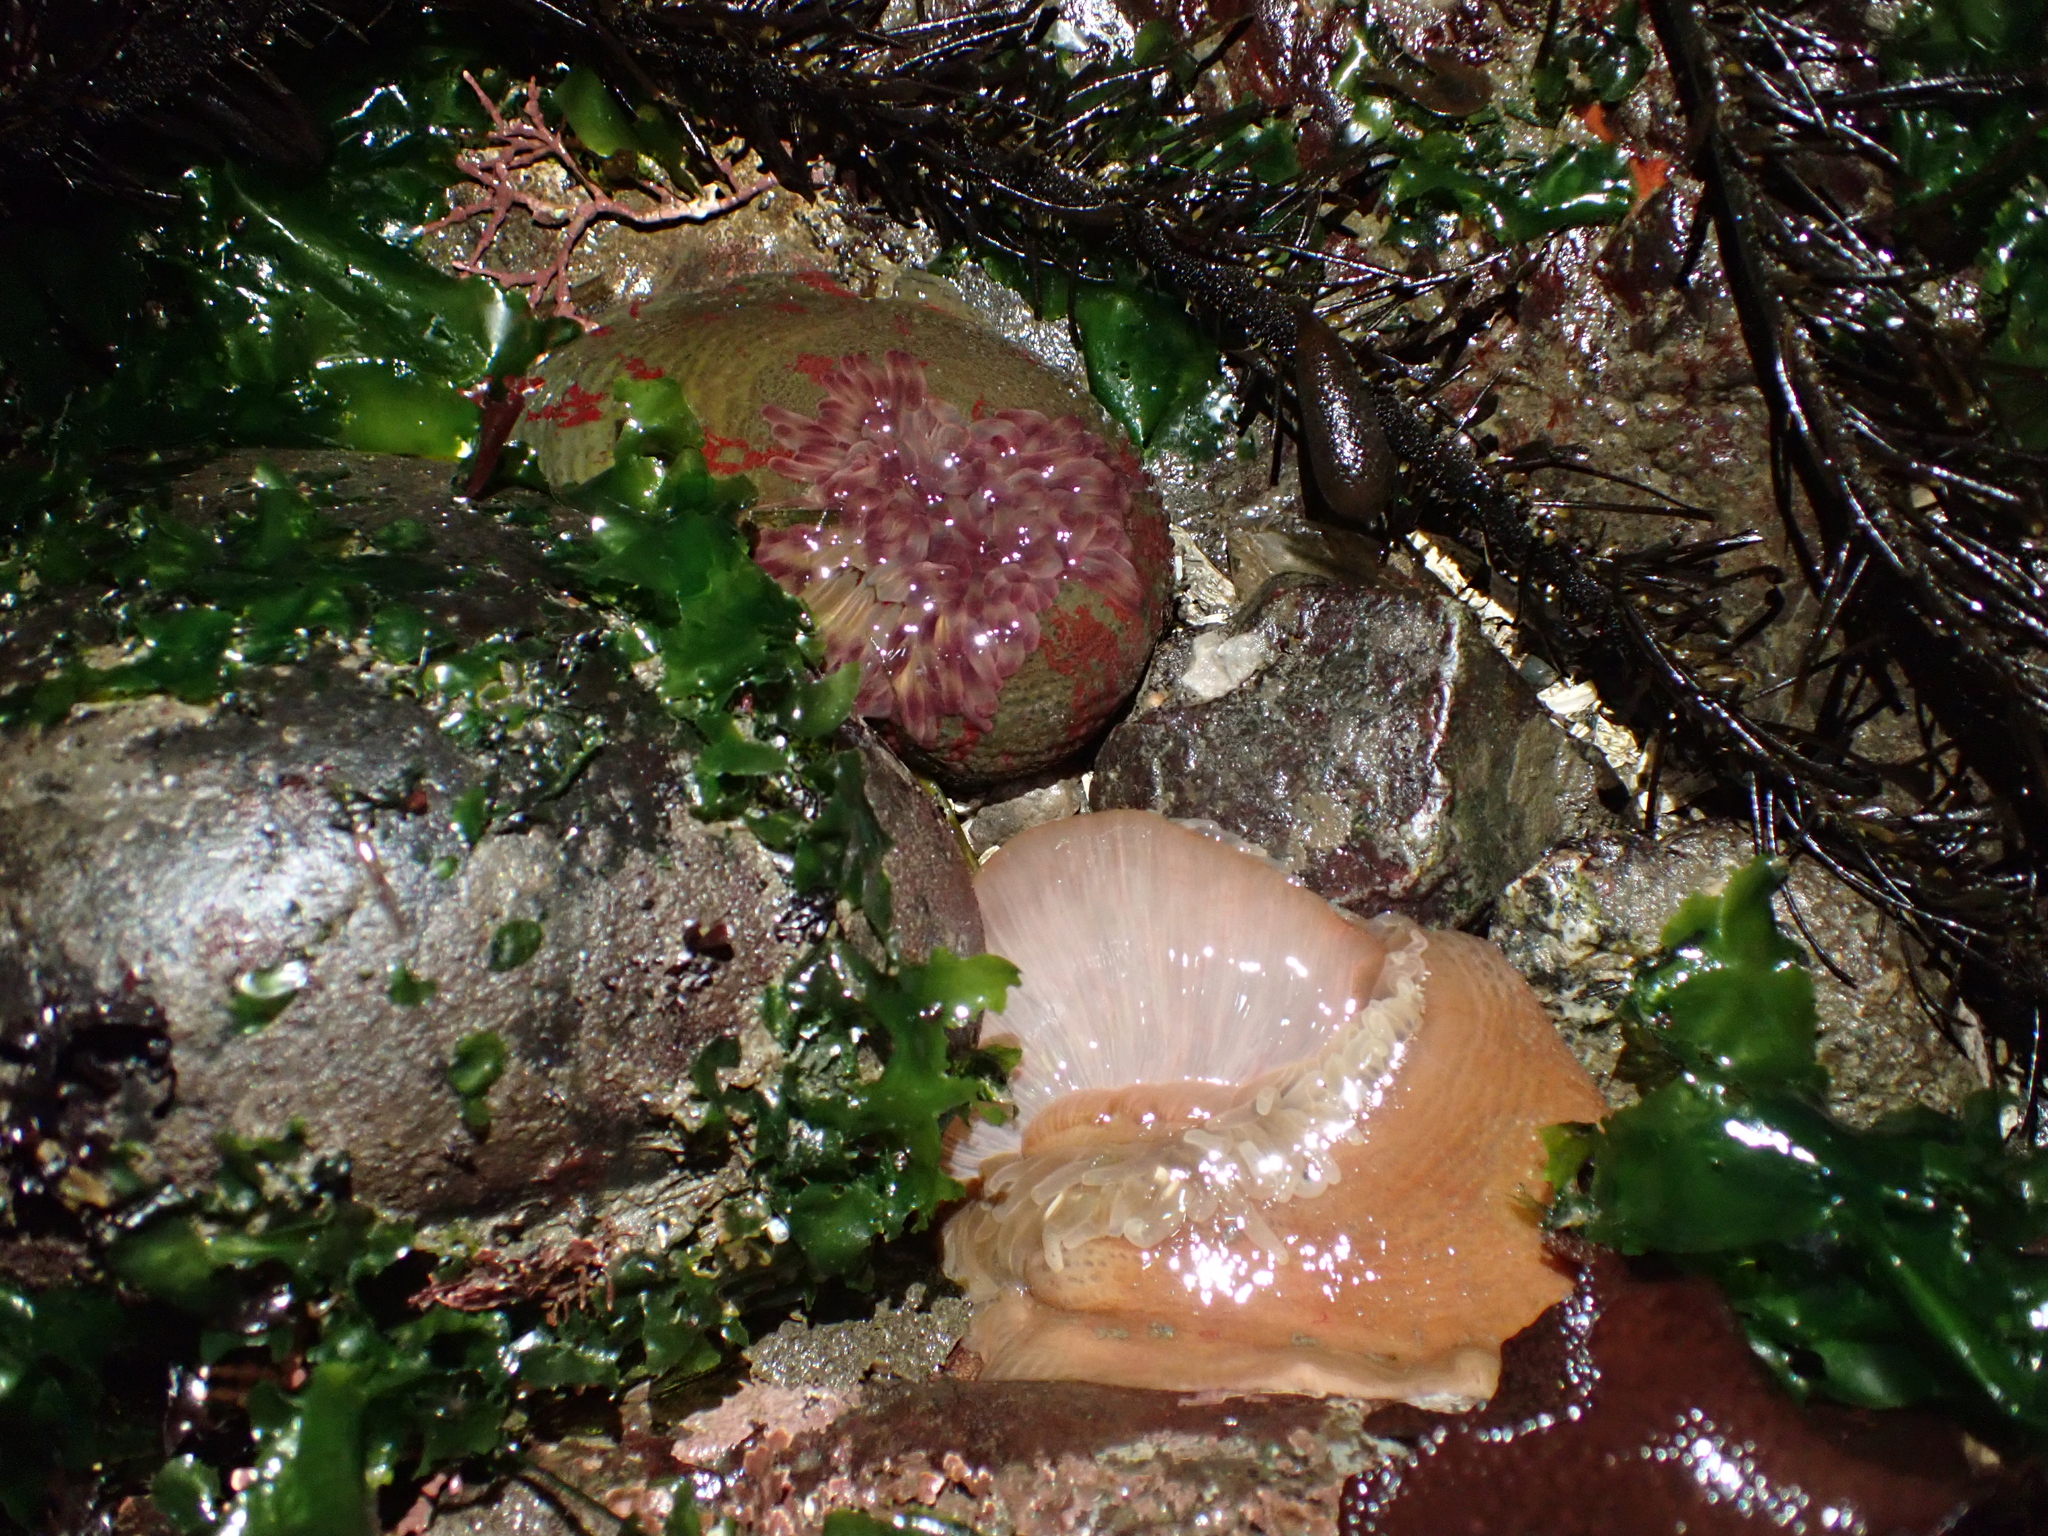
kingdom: Animalia
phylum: Cnidaria
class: Anthozoa
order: Actiniaria
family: Actiniidae
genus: Urticina
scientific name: Urticina grebelnyi
